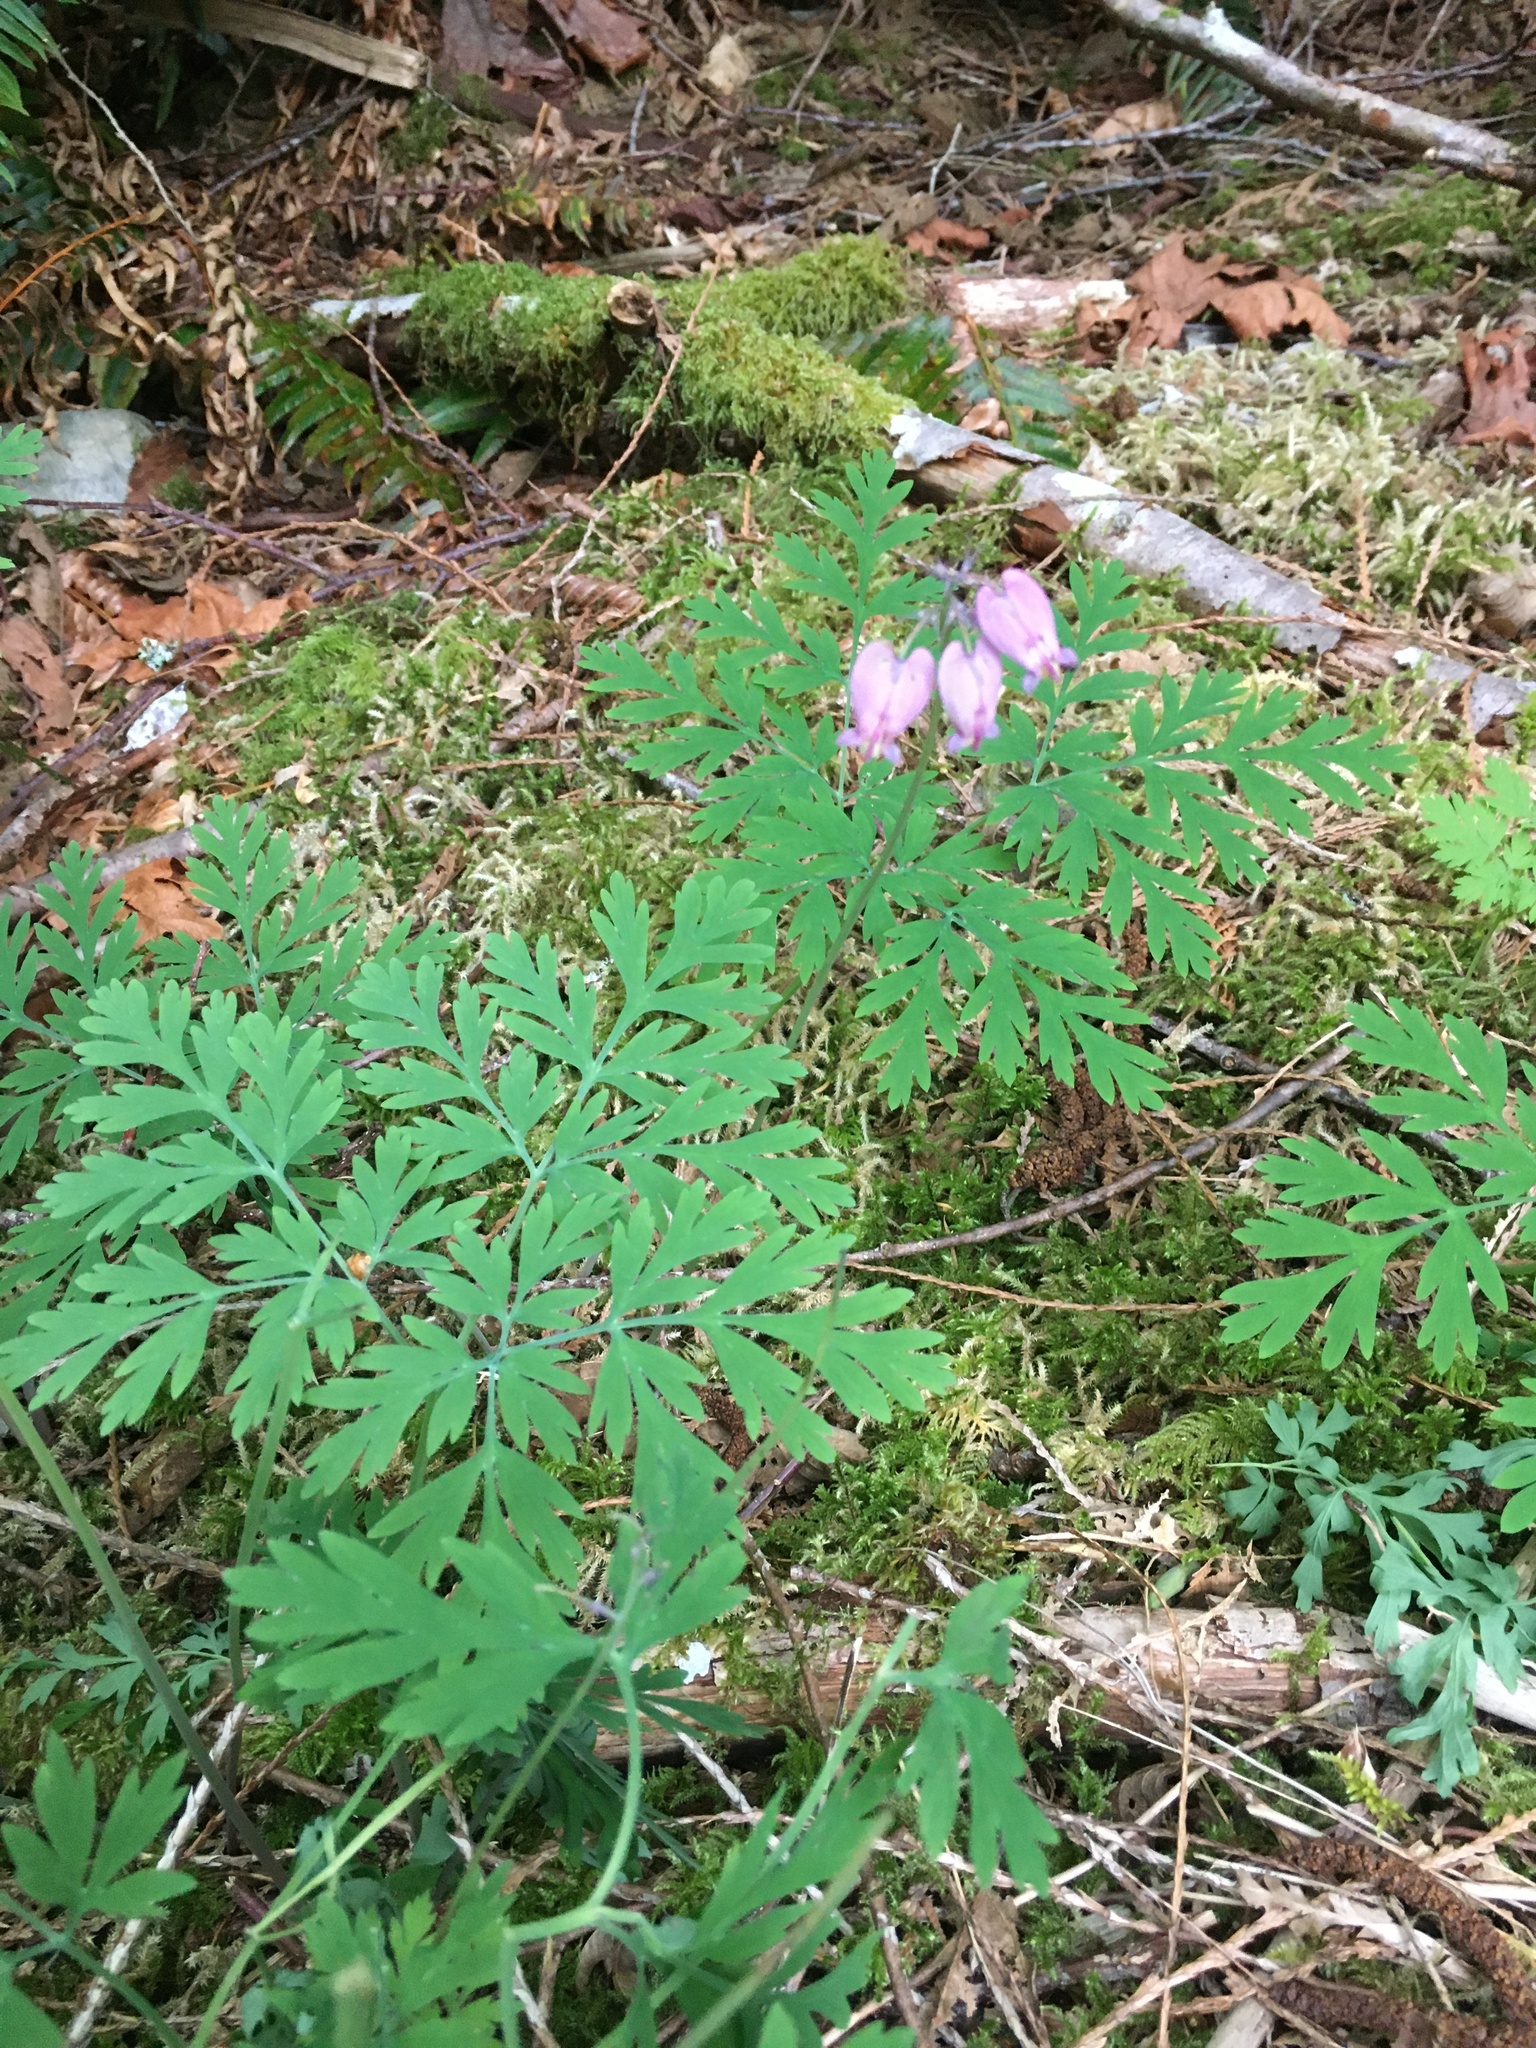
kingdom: Plantae
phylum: Tracheophyta
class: Magnoliopsida
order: Ranunculales
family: Papaveraceae
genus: Dicentra
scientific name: Dicentra formosa
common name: Bleeding-heart
